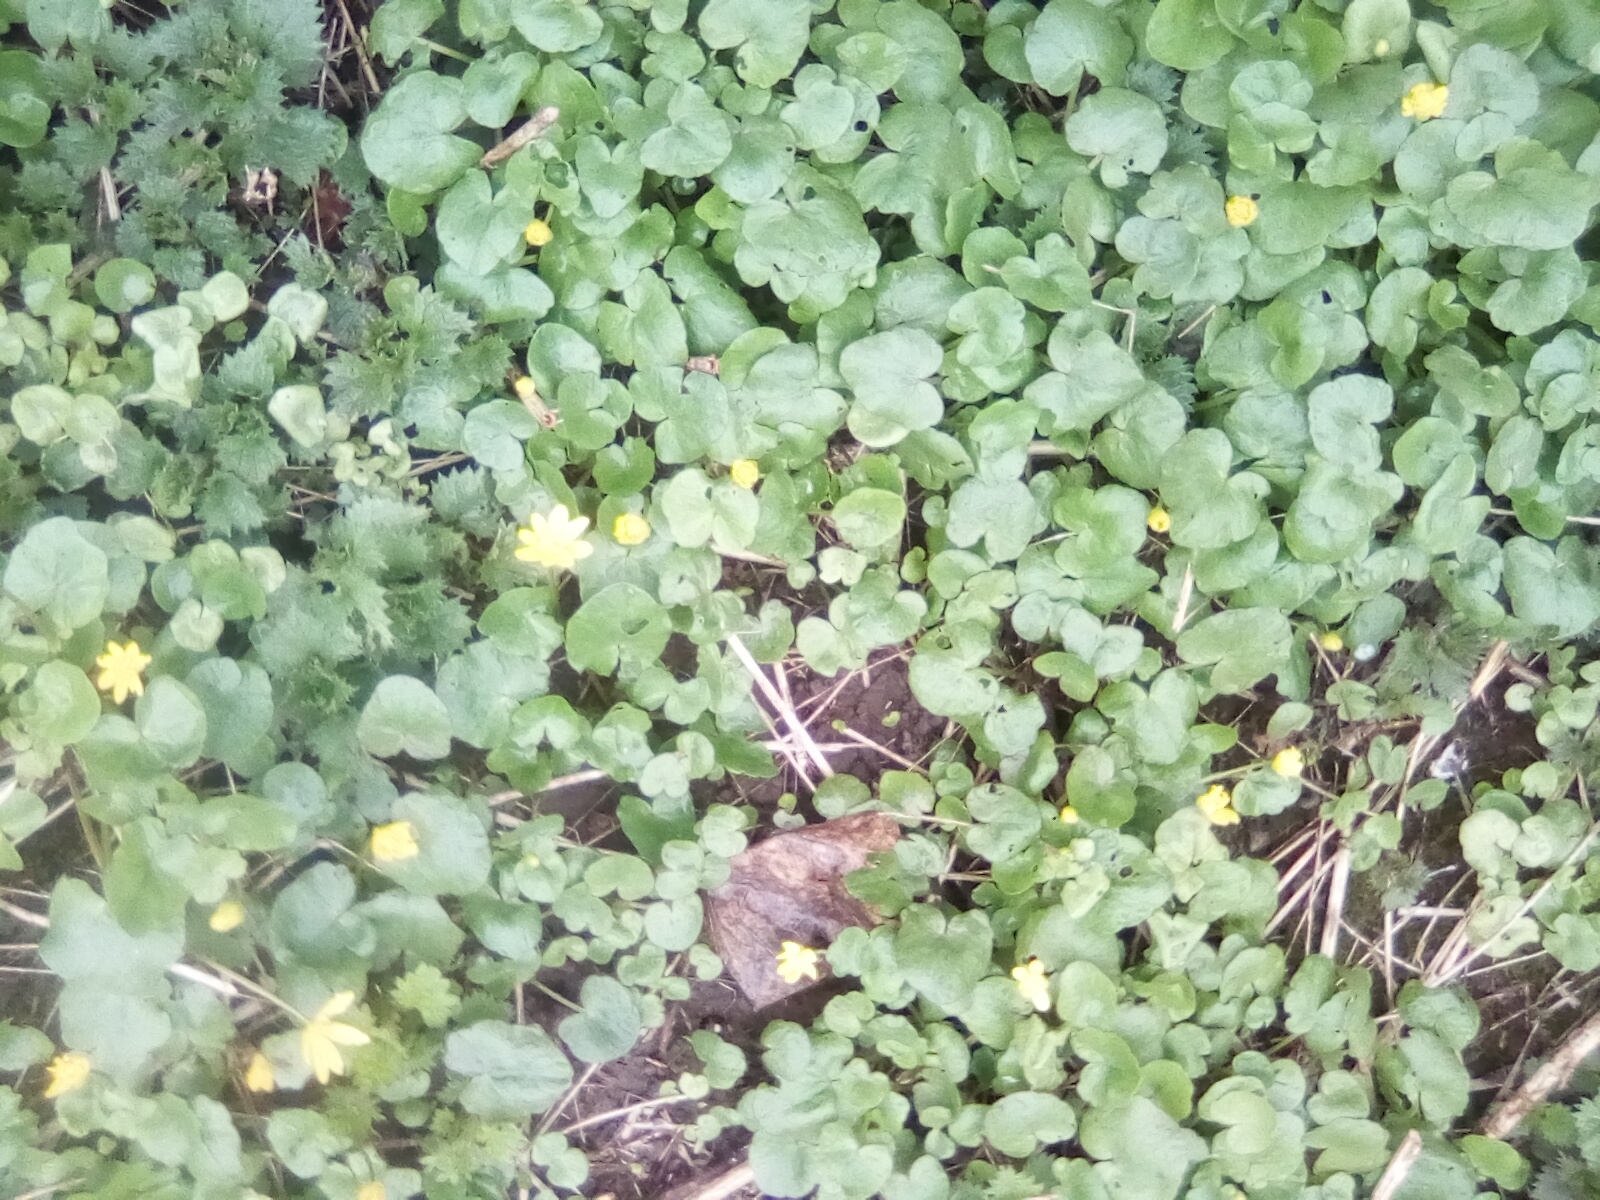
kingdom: Plantae
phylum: Tracheophyta
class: Magnoliopsida
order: Ranunculales
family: Ranunculaceae
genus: Ficaria
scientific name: Ficaria verna
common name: Lesser celandine
